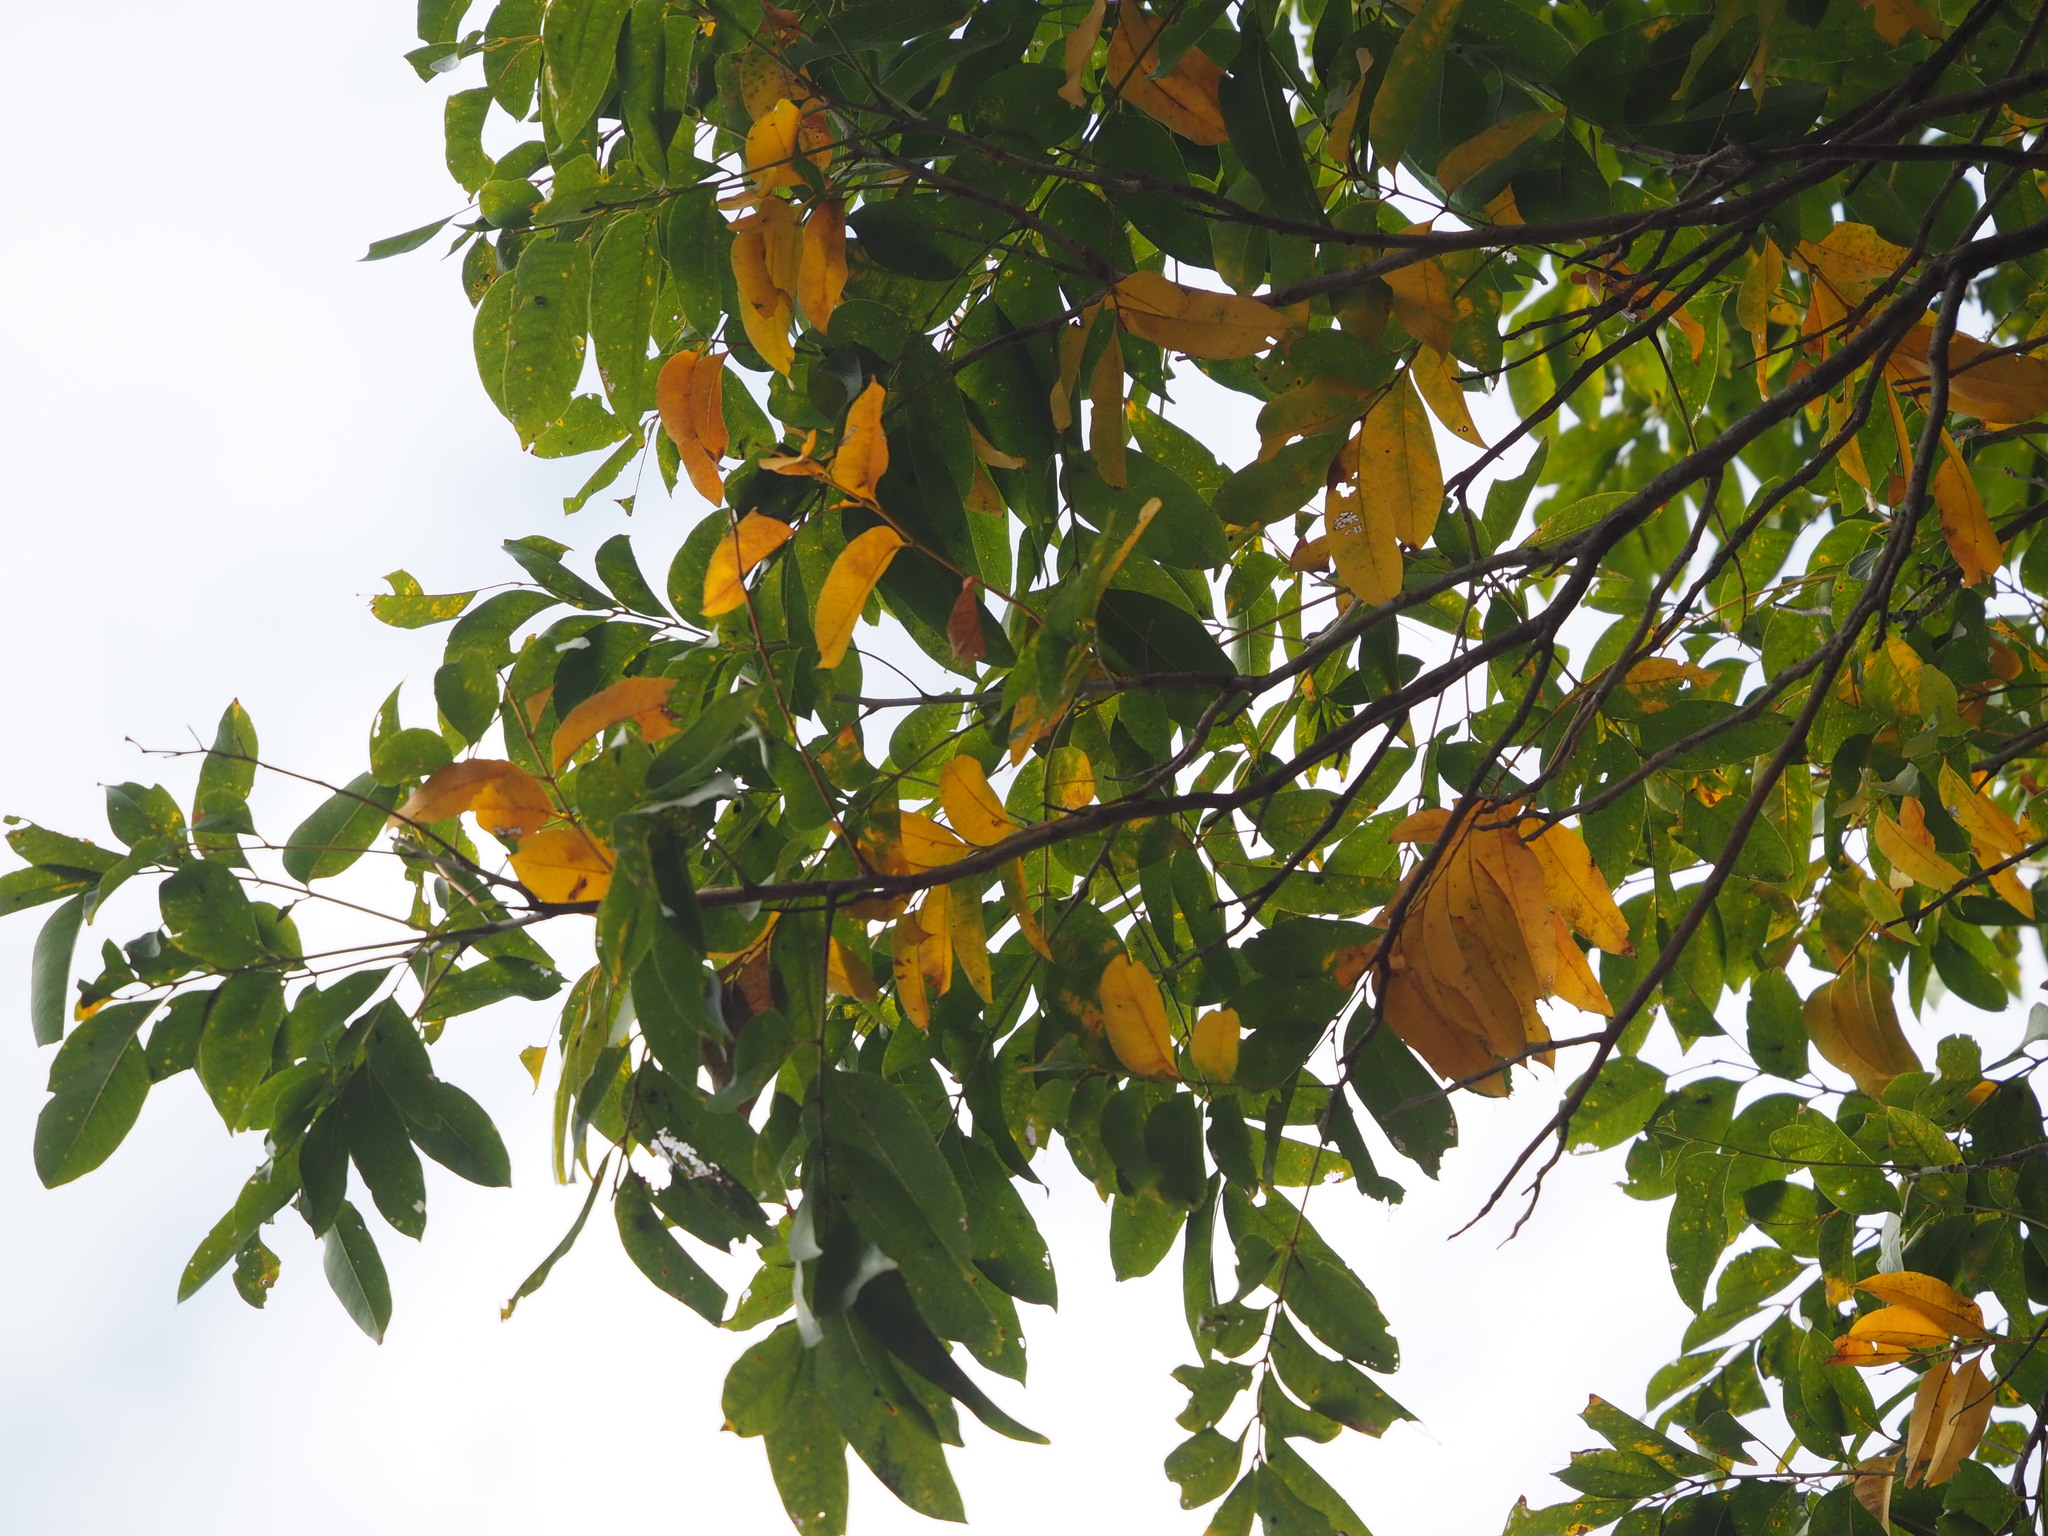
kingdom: Plantae
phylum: Tracheophyta
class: Magnoliopsida
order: Sapindales
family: Sapindaceae
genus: Sapindus
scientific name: Sapindus mukorossi
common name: Chinese soapberry
